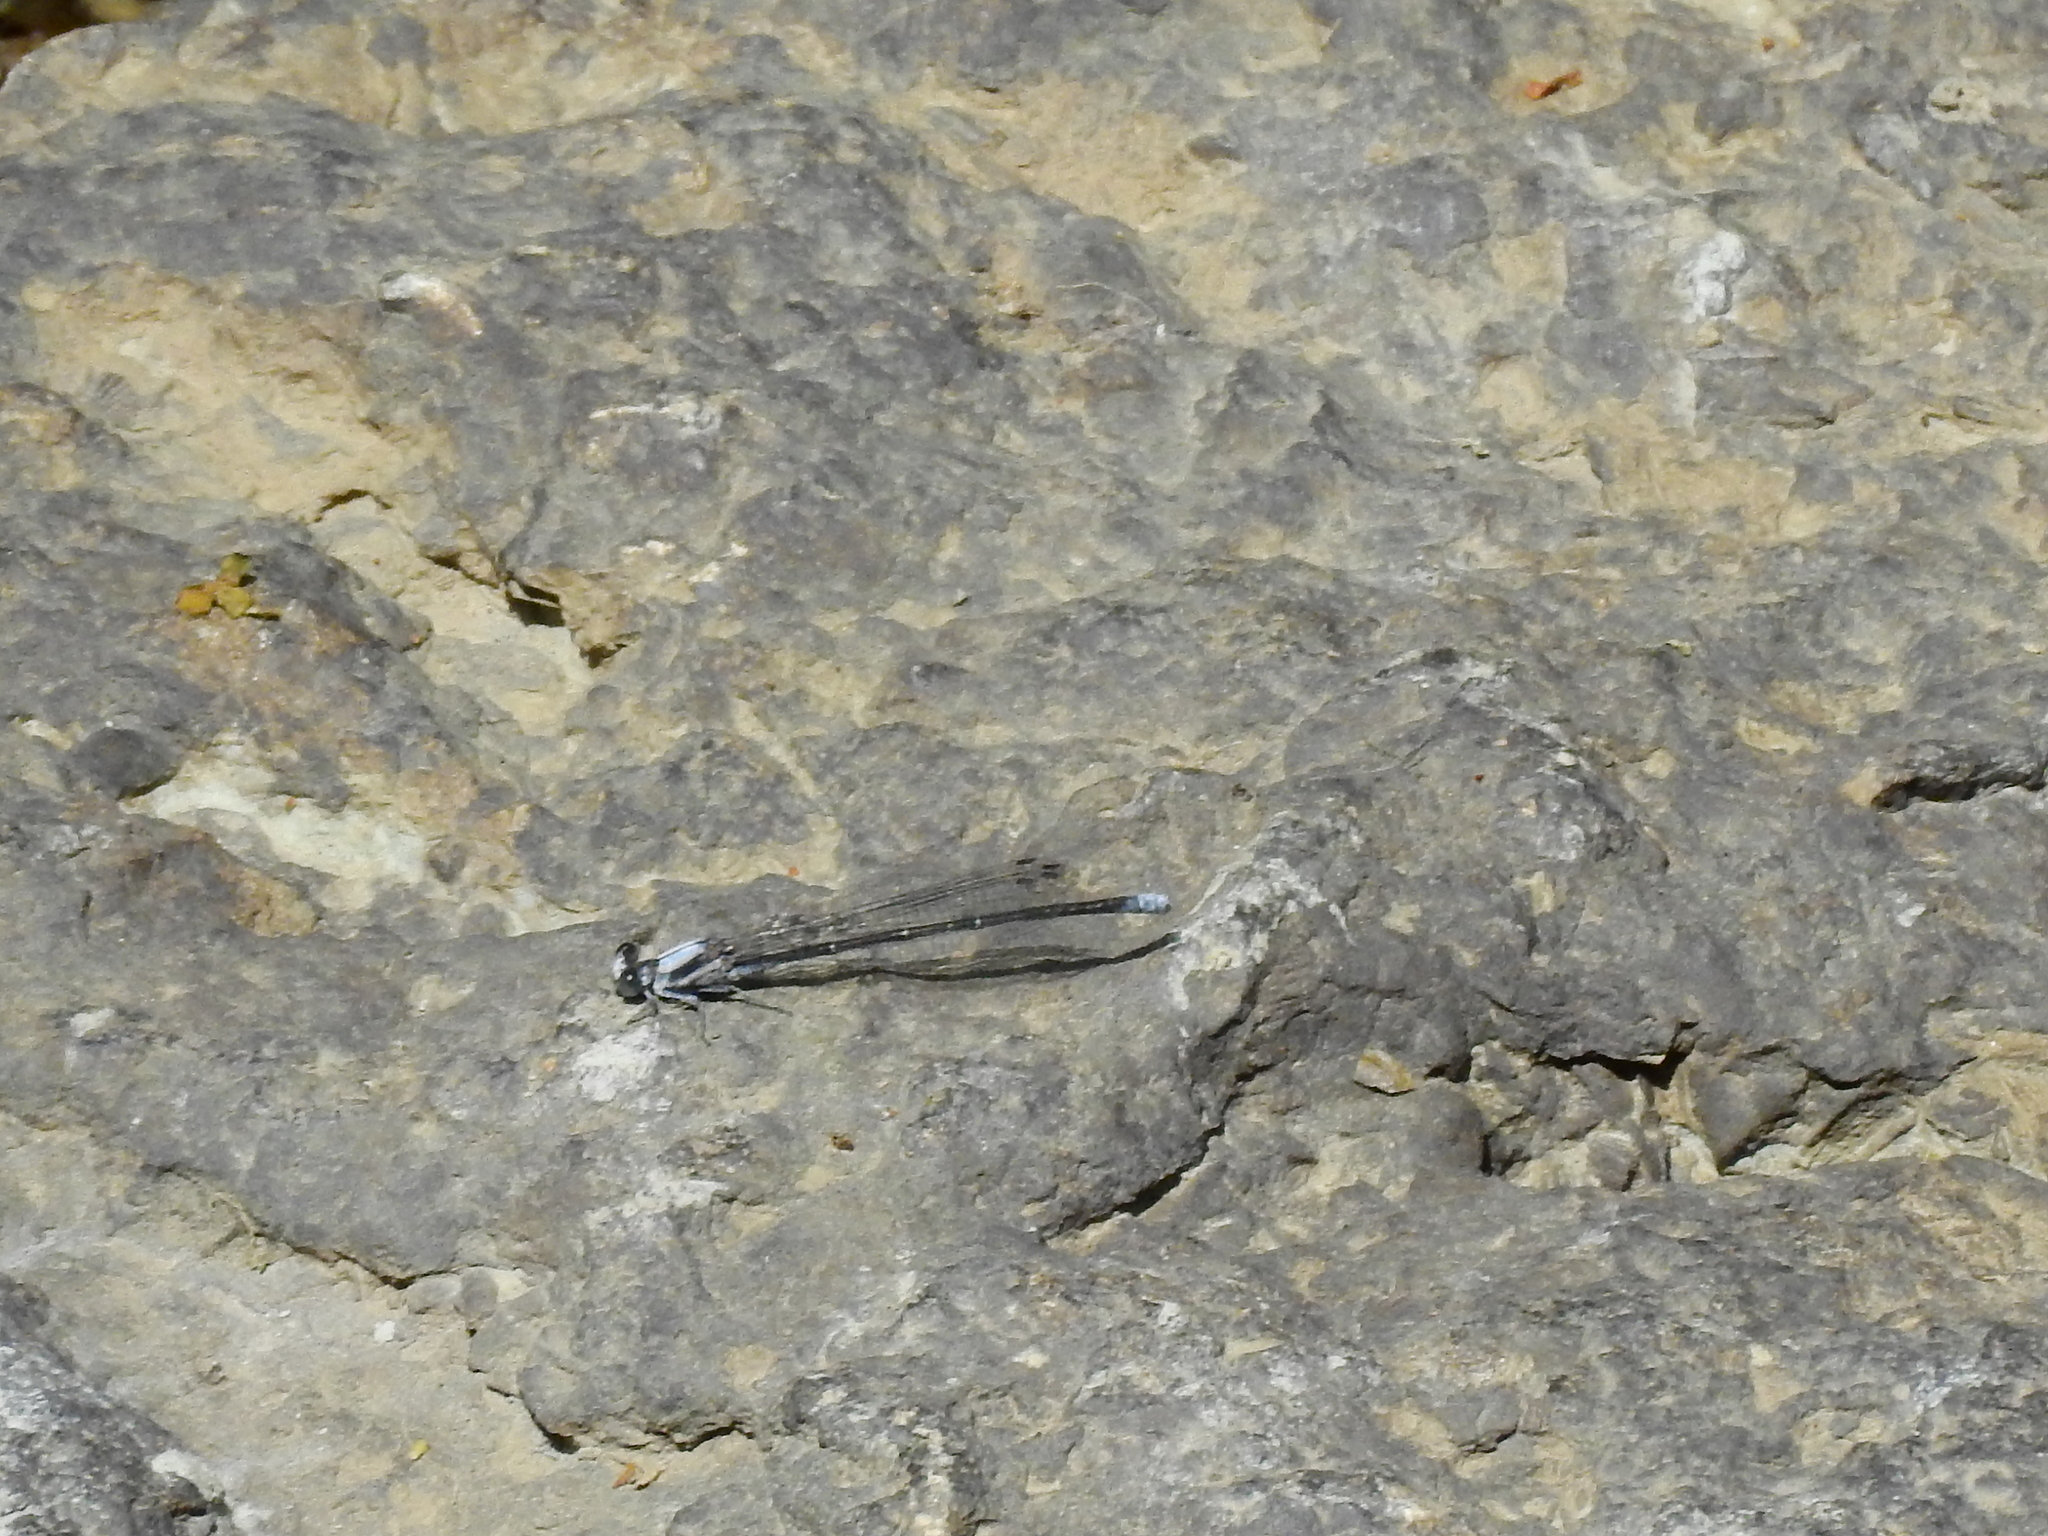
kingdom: Animalia
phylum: Arthropoda
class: Insecta
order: Odonata
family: Coenagrionidae
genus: Argia
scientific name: Argia moesta
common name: Powdered dancer
